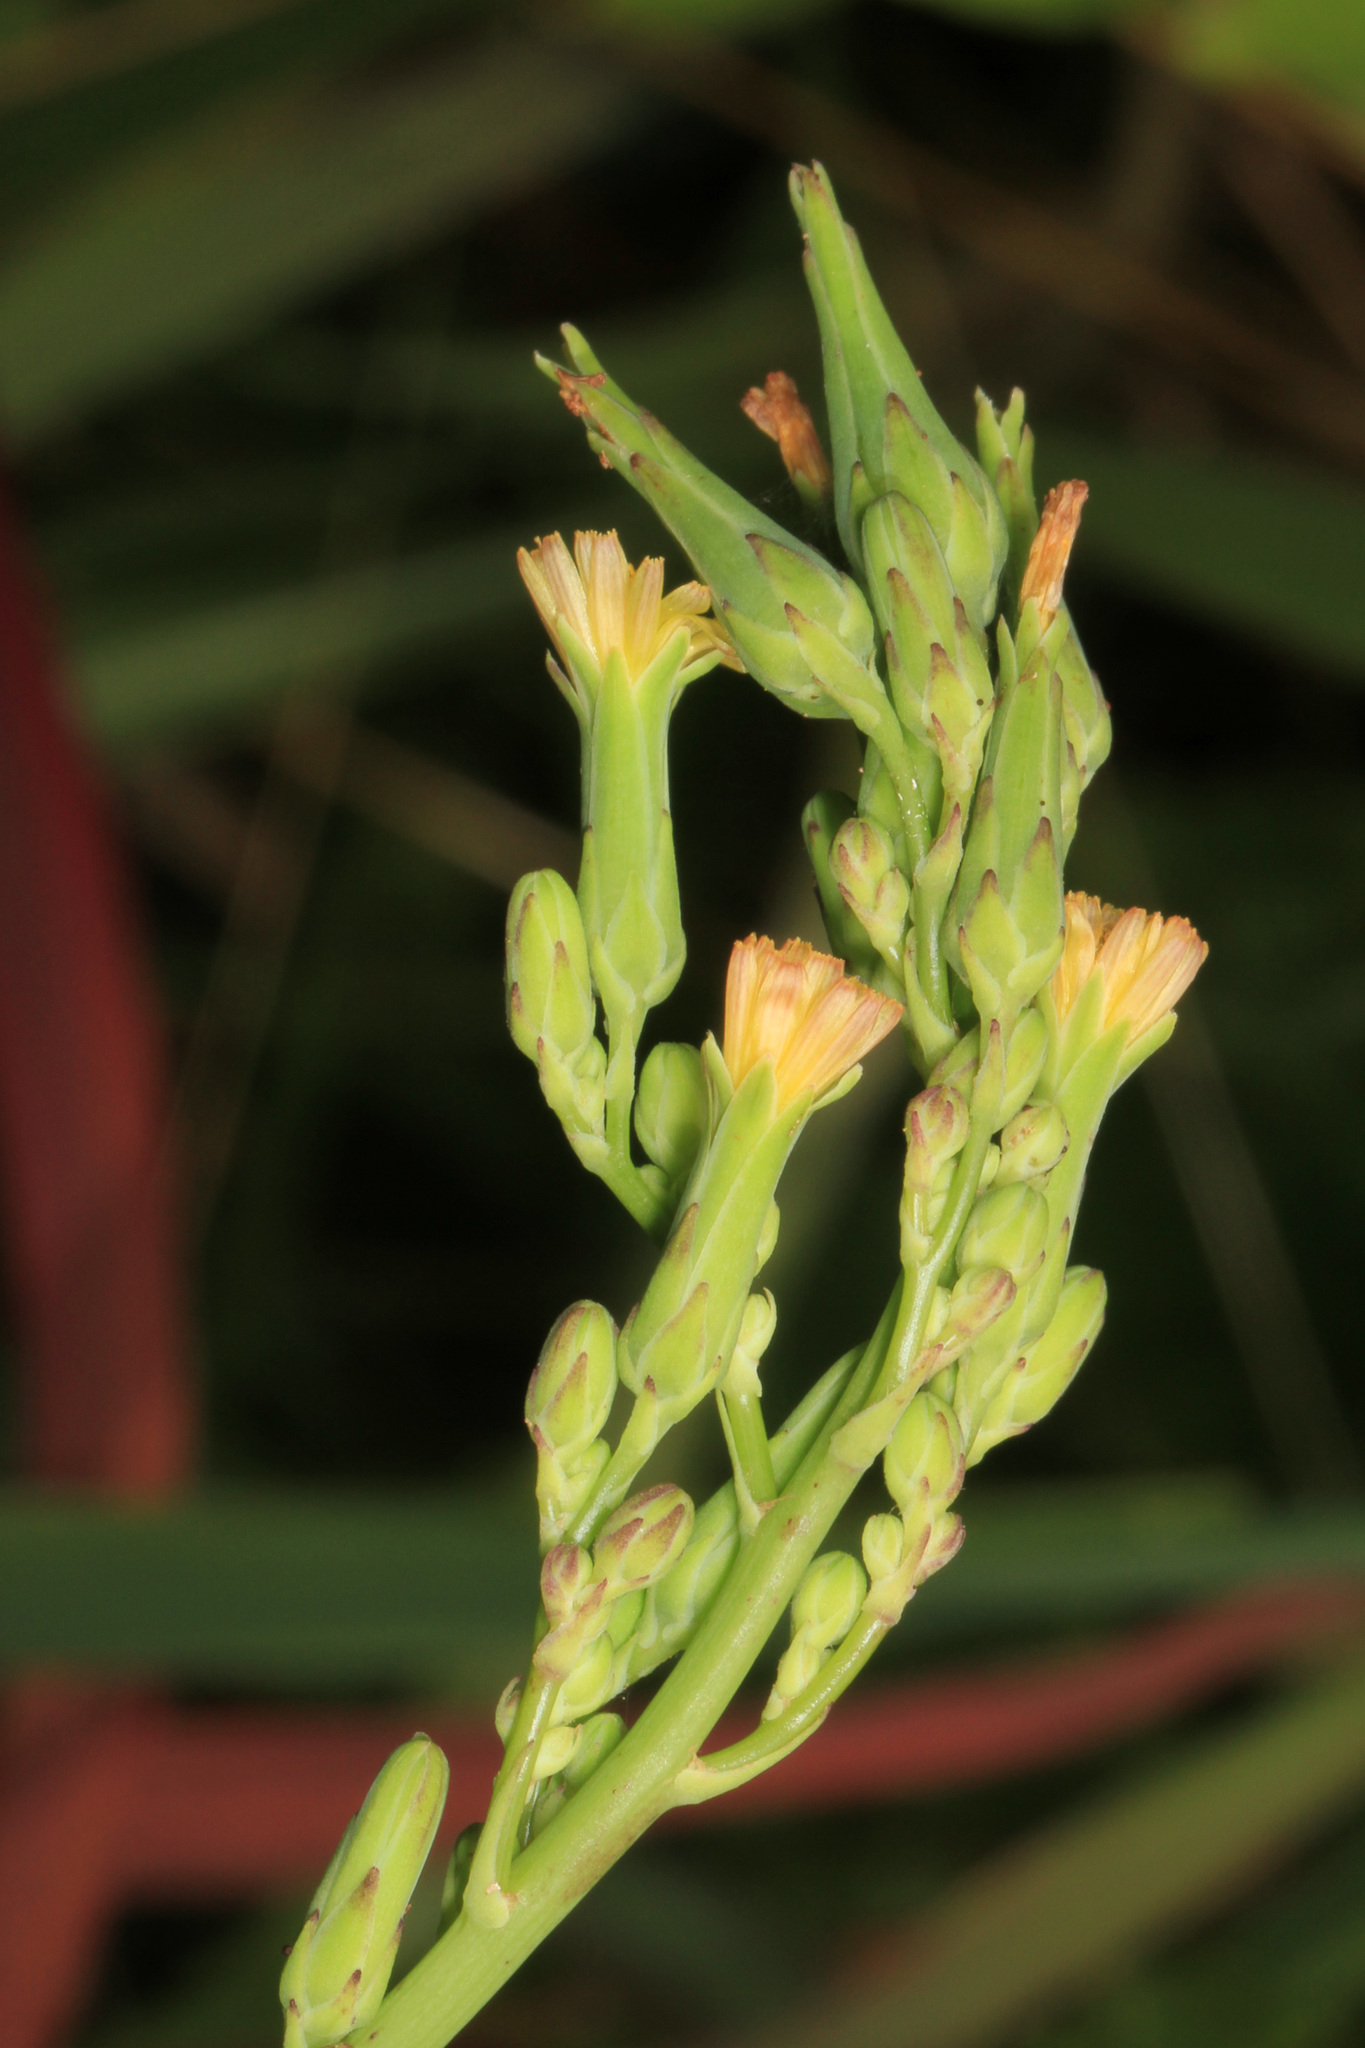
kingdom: Plantae
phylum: Tracheophyta
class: Magnoliopsida
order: Asterales
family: Asteraceae
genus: Lactuca
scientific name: Lactuca canadensis
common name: Canada lettuce
